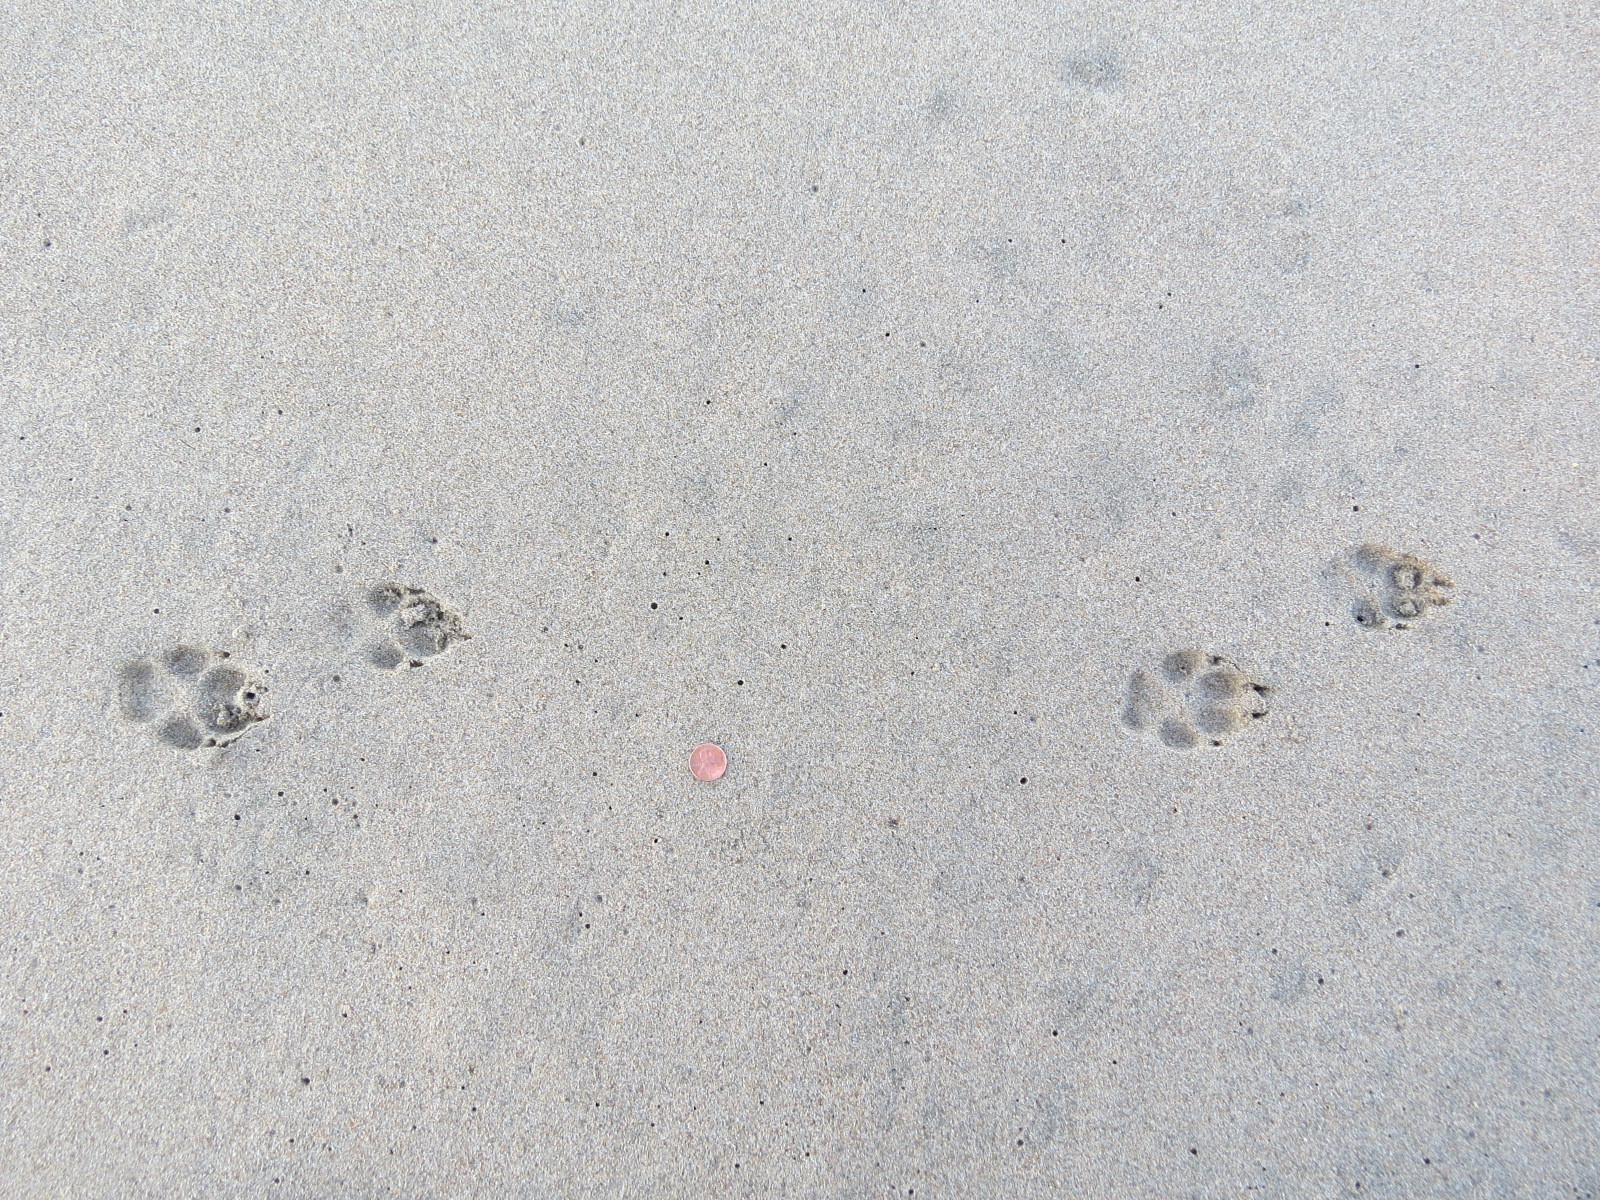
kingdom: Animalia
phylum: Chordata
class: Mammalia
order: Carnivora
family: Canidae
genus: Canis
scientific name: Canis latrans
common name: Coyote
